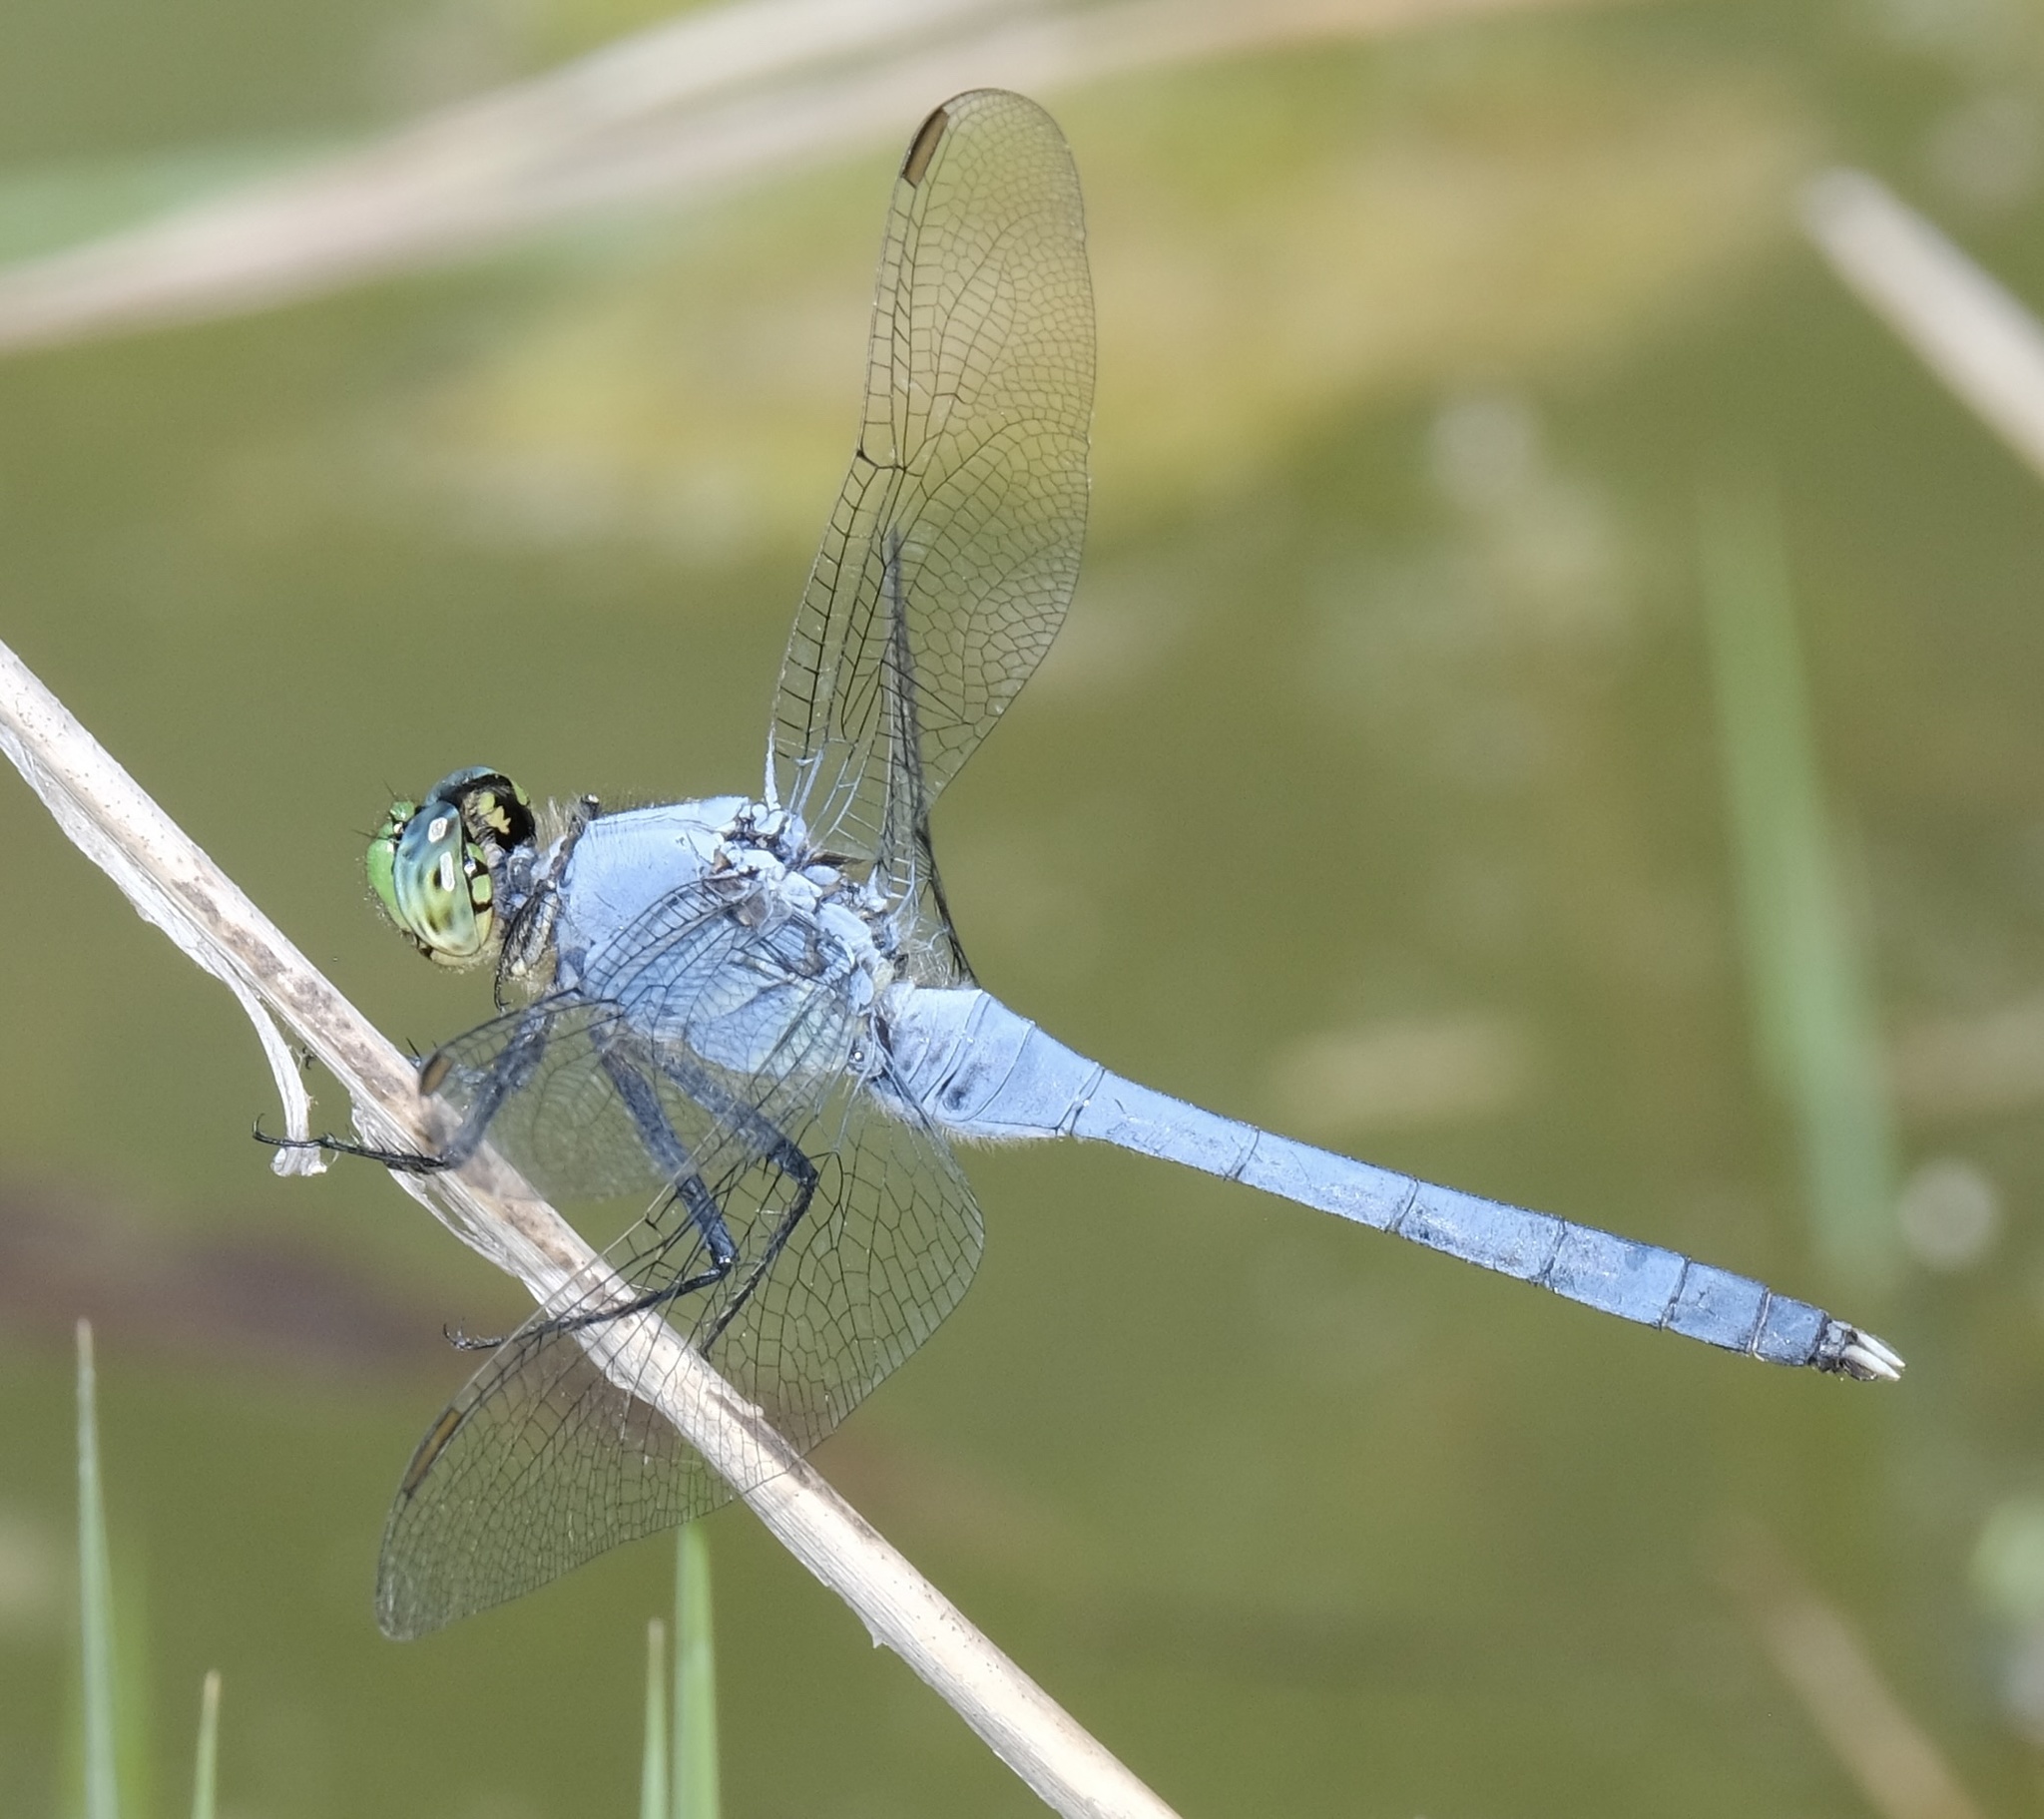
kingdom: Animalia
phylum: Arthropoda
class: Insecta
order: Odonata
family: Libellulidae
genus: Erythemis
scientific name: Erythemis simplicicollis
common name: Eastern pondhawk
